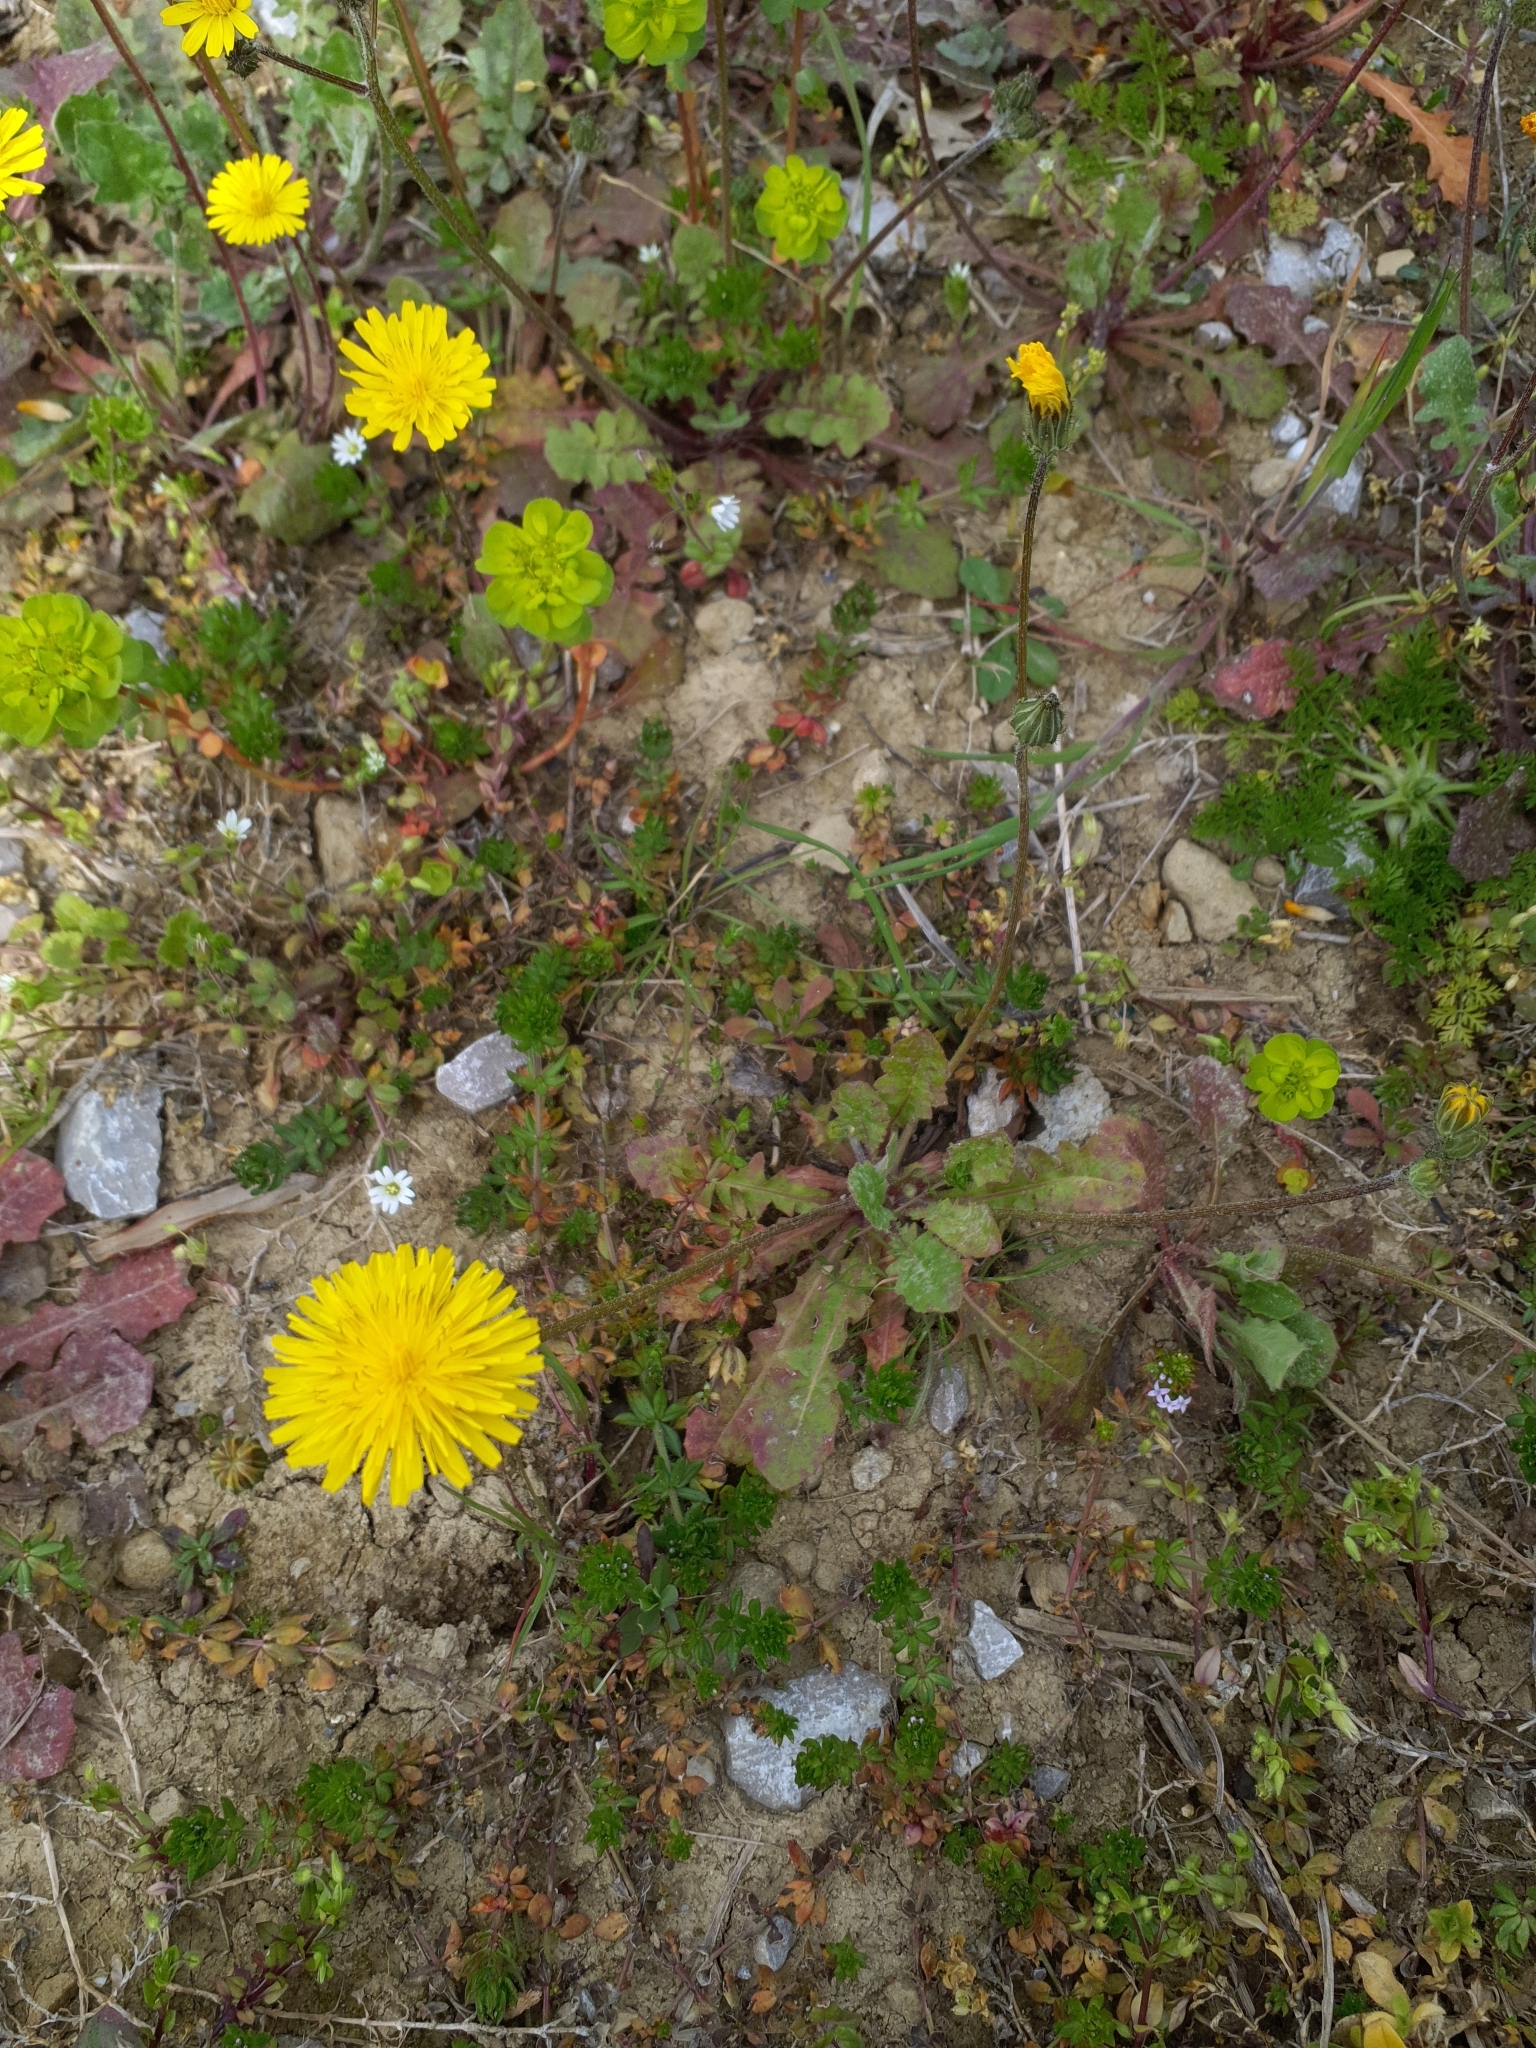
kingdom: Plantae
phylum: Tracheophyta
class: Magnoliopsida
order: Asterales
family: Asteraceae
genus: Crepis
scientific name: Crepis sancta
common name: Hawk's-beard
